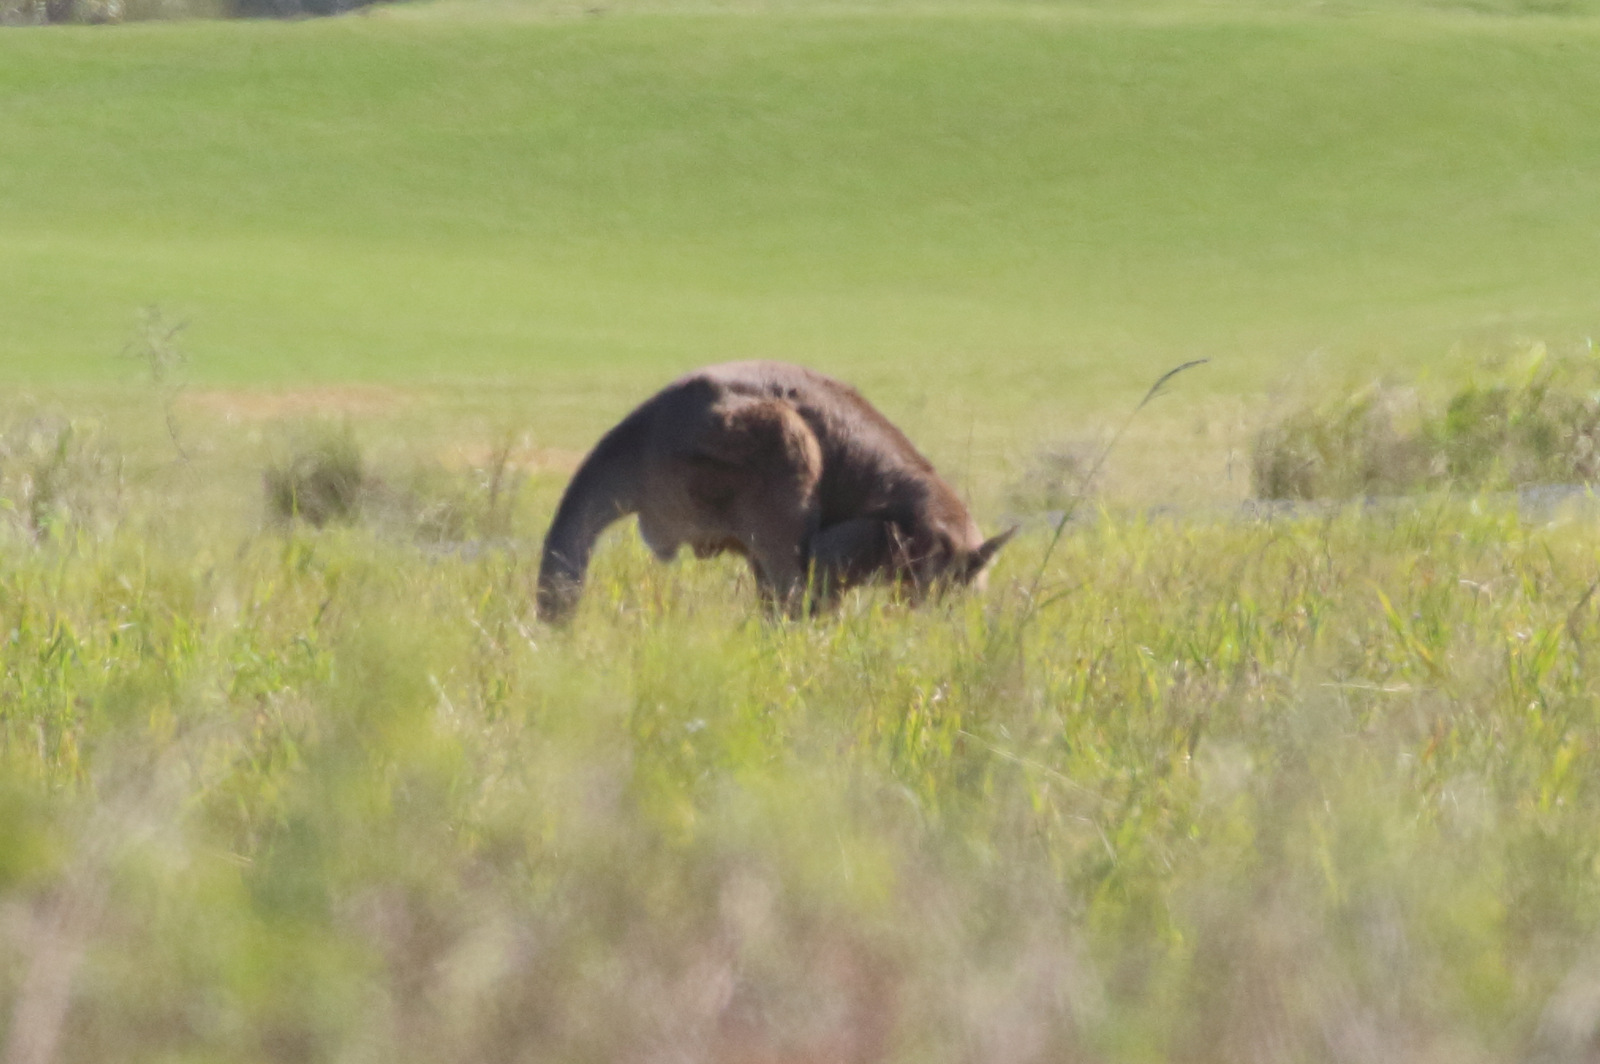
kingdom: Animalia
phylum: Chordata
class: Mammalia
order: Diprotodontia
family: Macropodidae
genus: Macropus
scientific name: Macropus giganteus
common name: Eastern grey kangaroo
